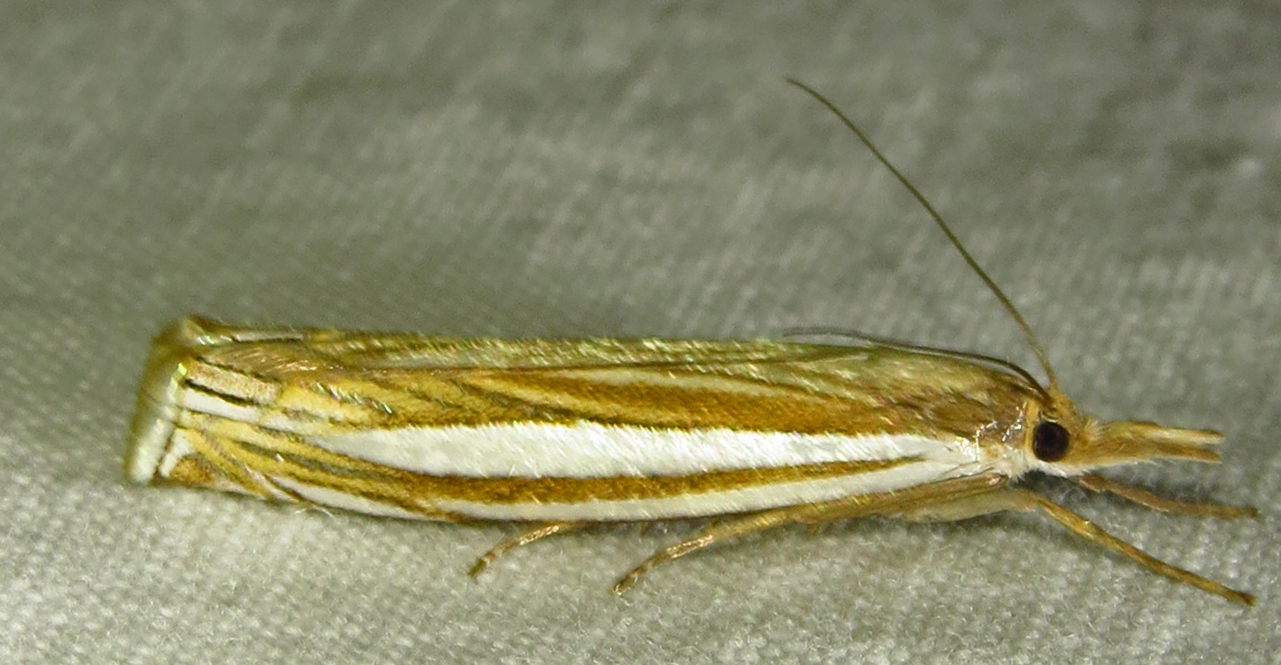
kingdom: Animalia
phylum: Arthropoda
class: Insecta
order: Lepidoptera
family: Crambidae
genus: Crambus
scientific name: Crambus laqueatellus
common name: Eastern grass-veneer
